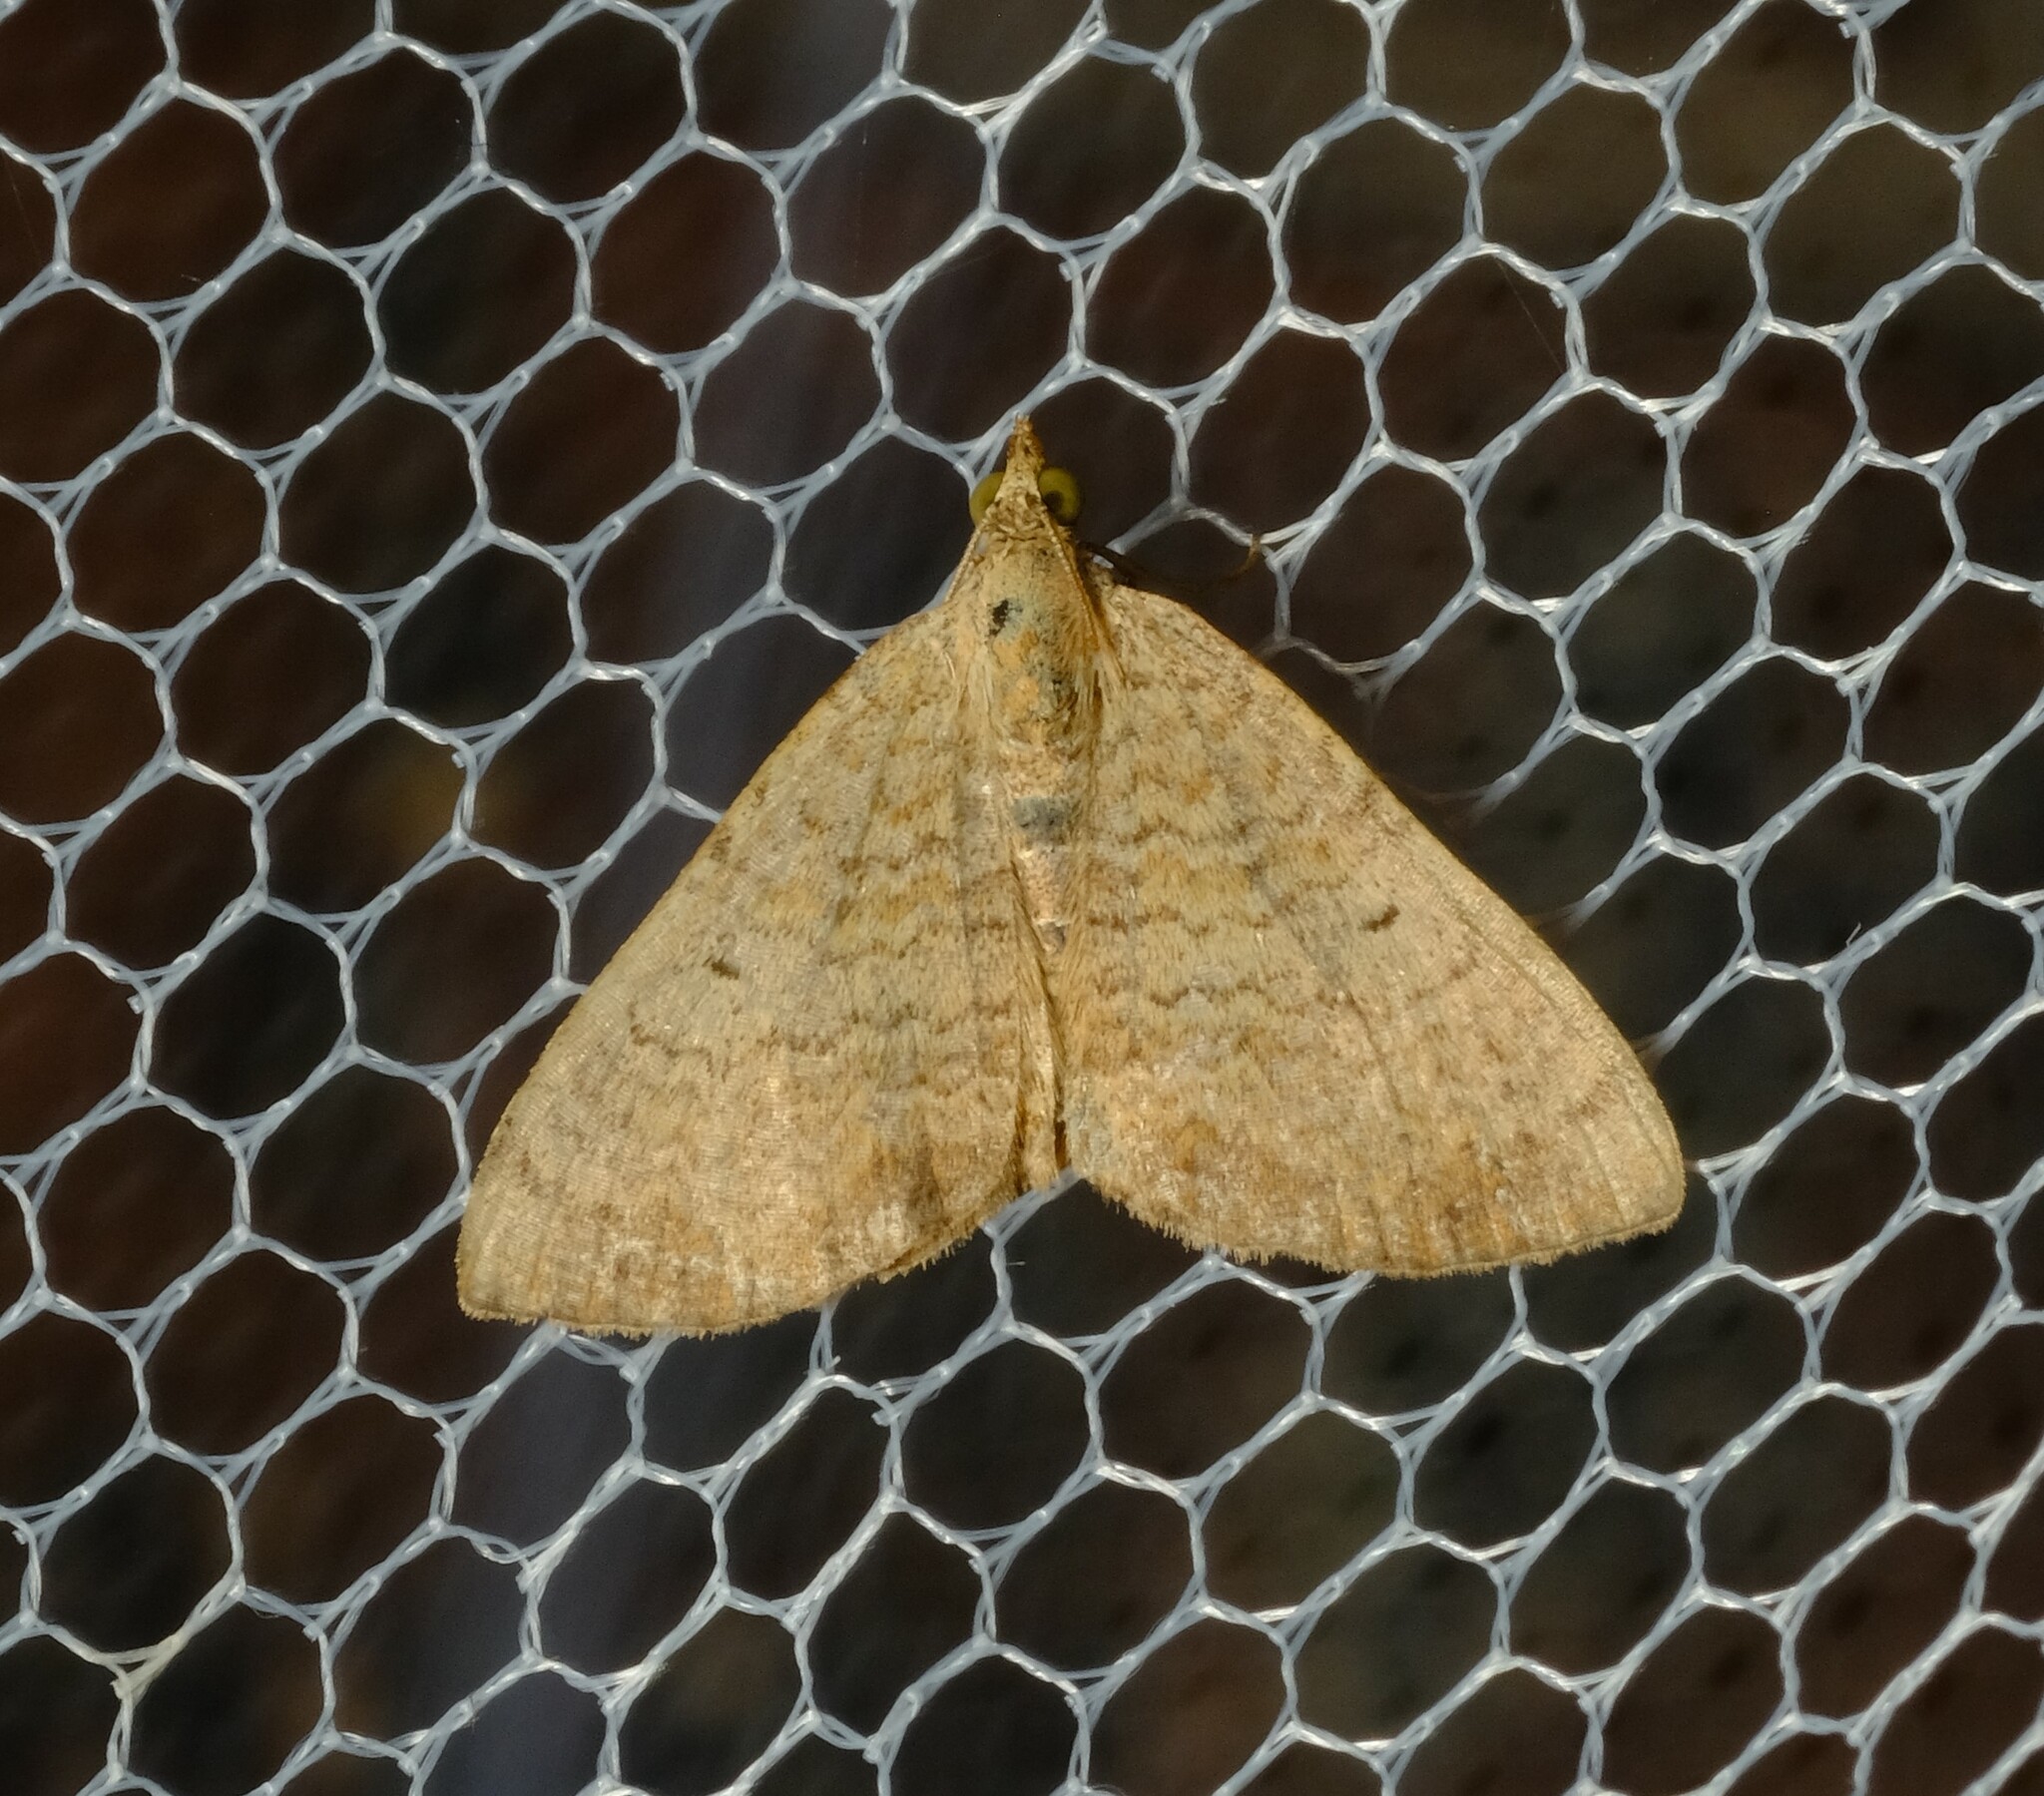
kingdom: Animalia
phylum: Arthropoda
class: Insecta
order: Lepidoptera
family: Geometridae
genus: Chrysolarentia
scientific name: Chrysolarentia mecynata
